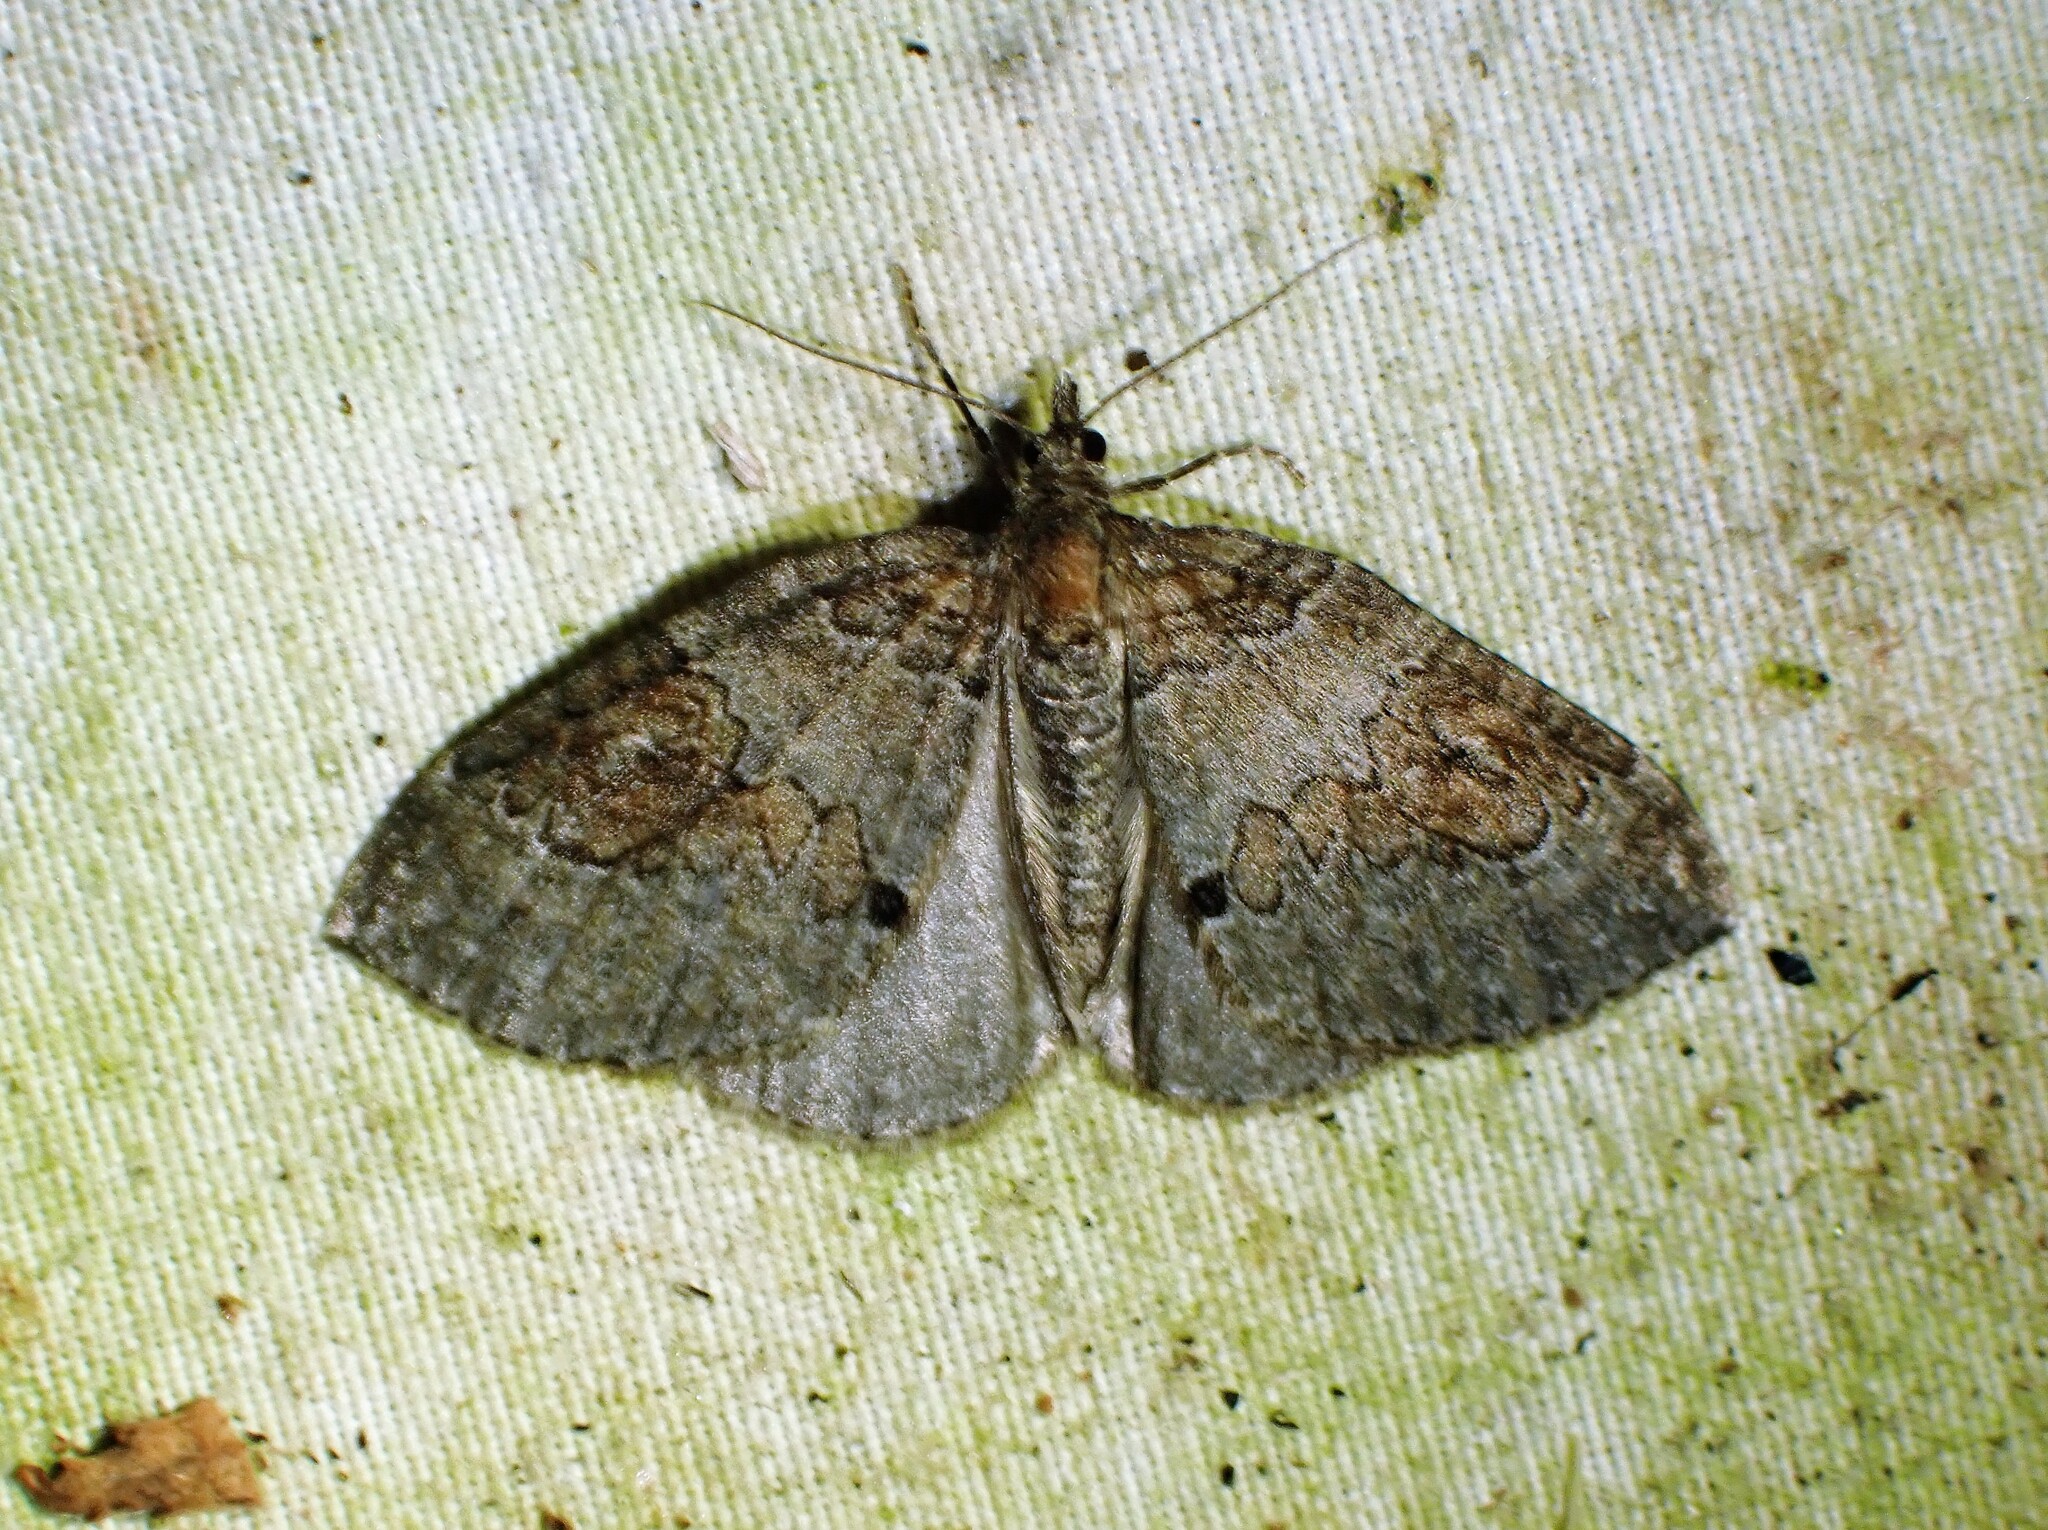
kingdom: Animalia
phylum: Arthropoda
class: Insecta
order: Lepidoptera
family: Geometridae
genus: Plemyria
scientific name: Plemyria georgii
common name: George's carpet moth
